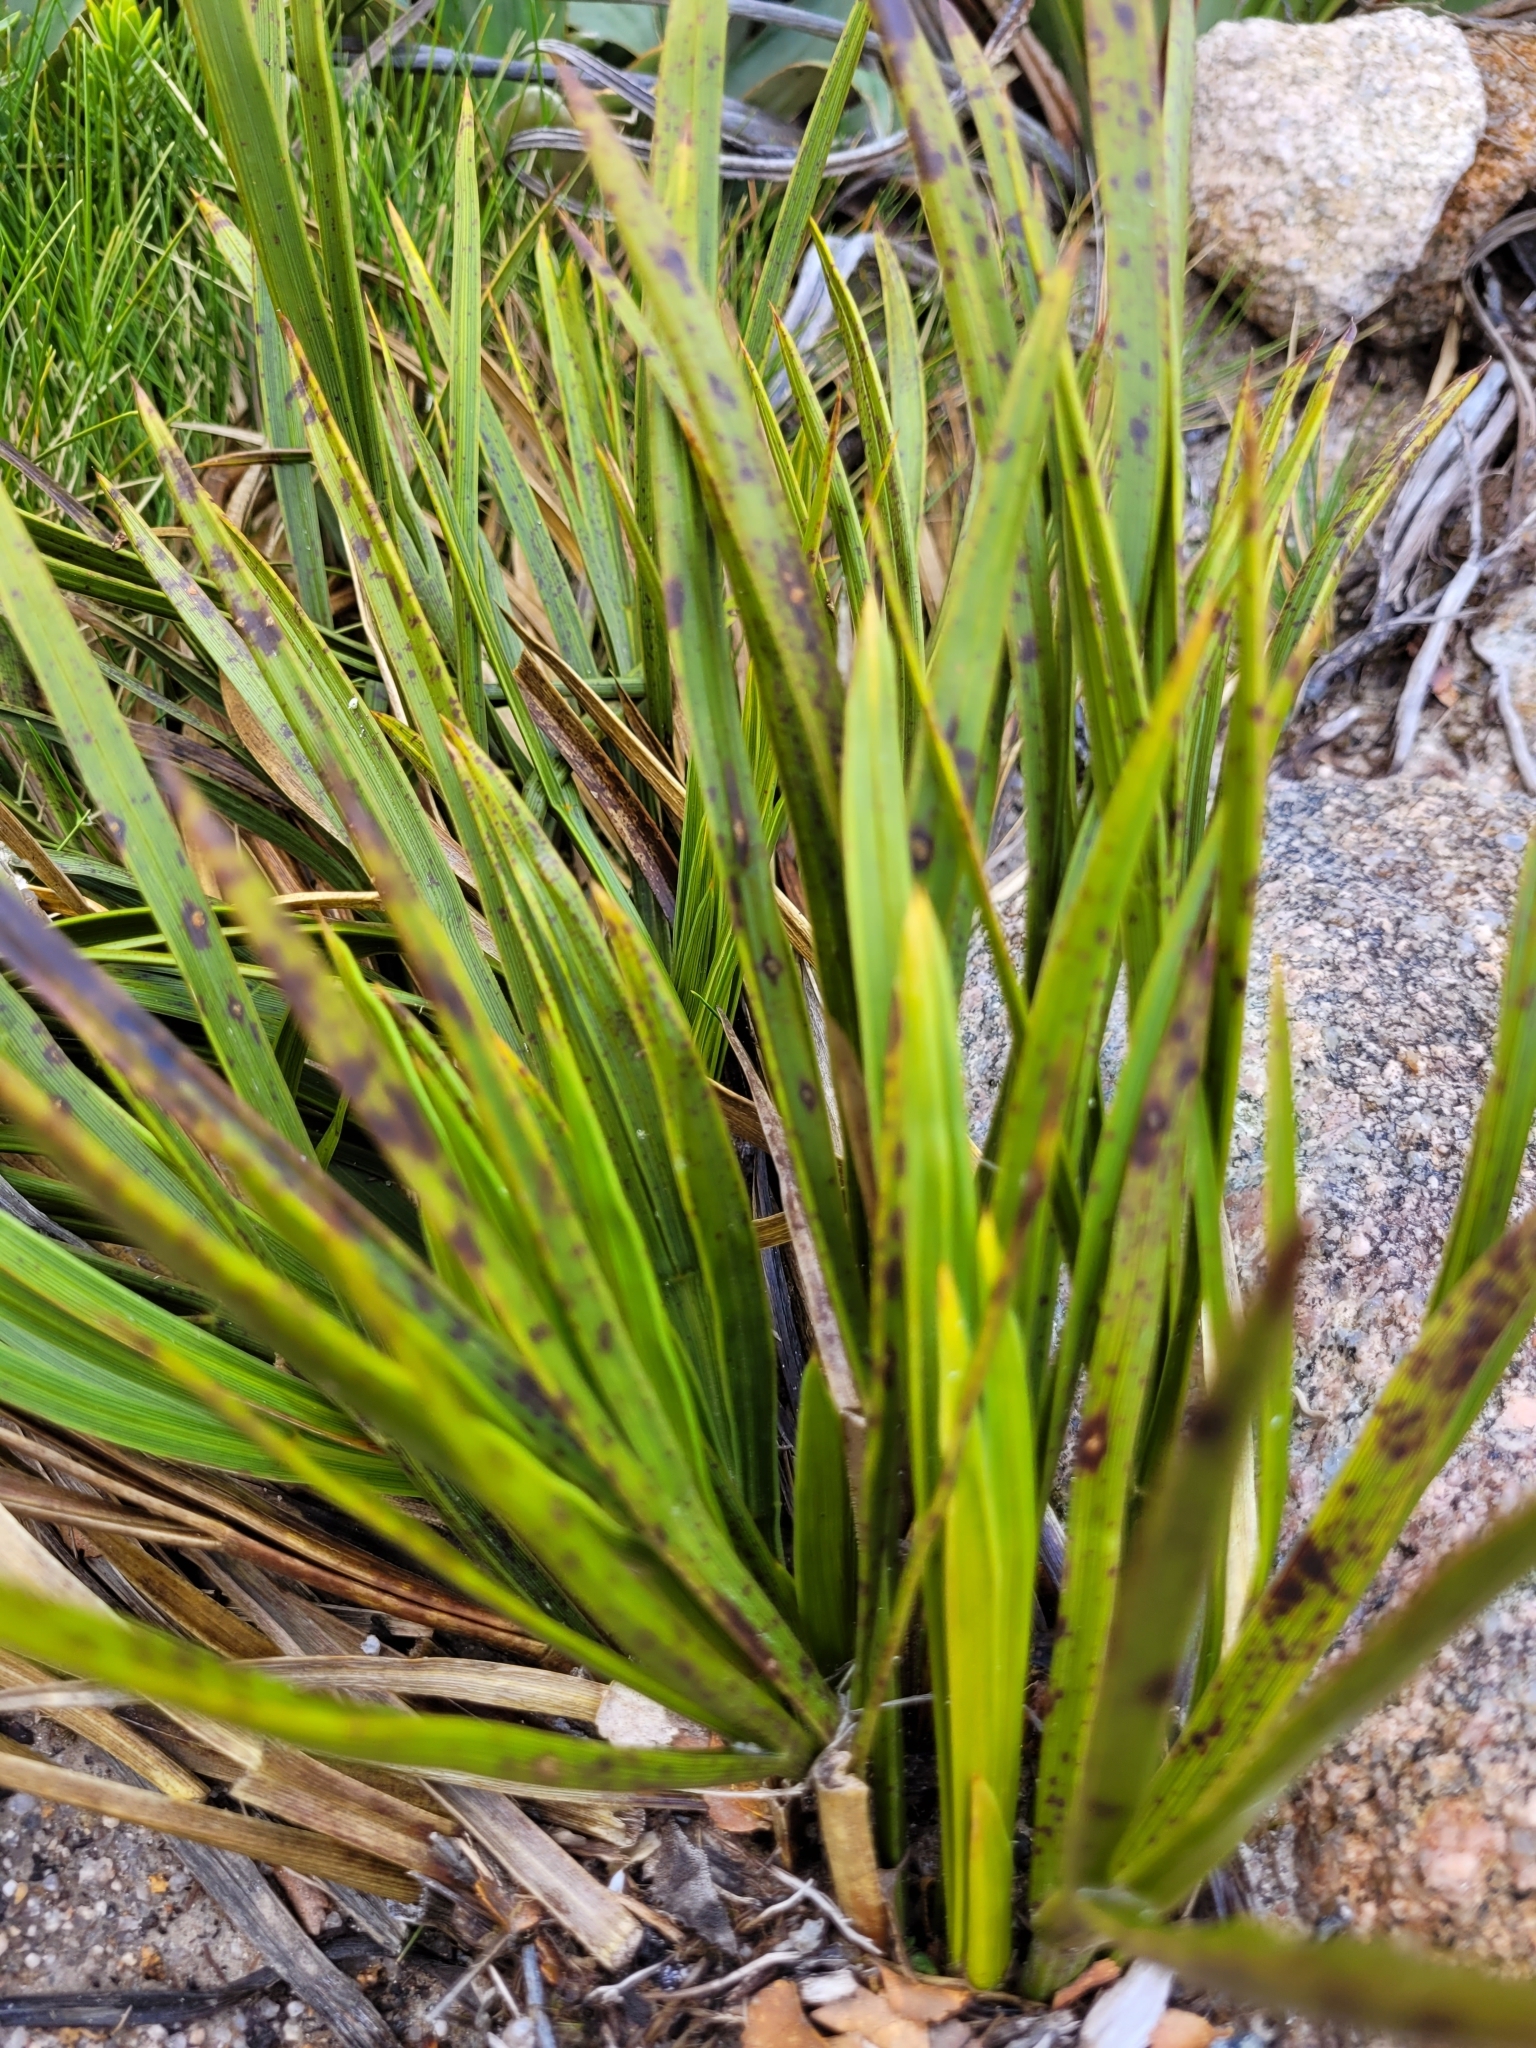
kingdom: Plantae
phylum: Tracheophyta
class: Magnoliopsida
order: Apiales
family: Apiaceae
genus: Aciphylla
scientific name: Aciphylla trifoliolata
